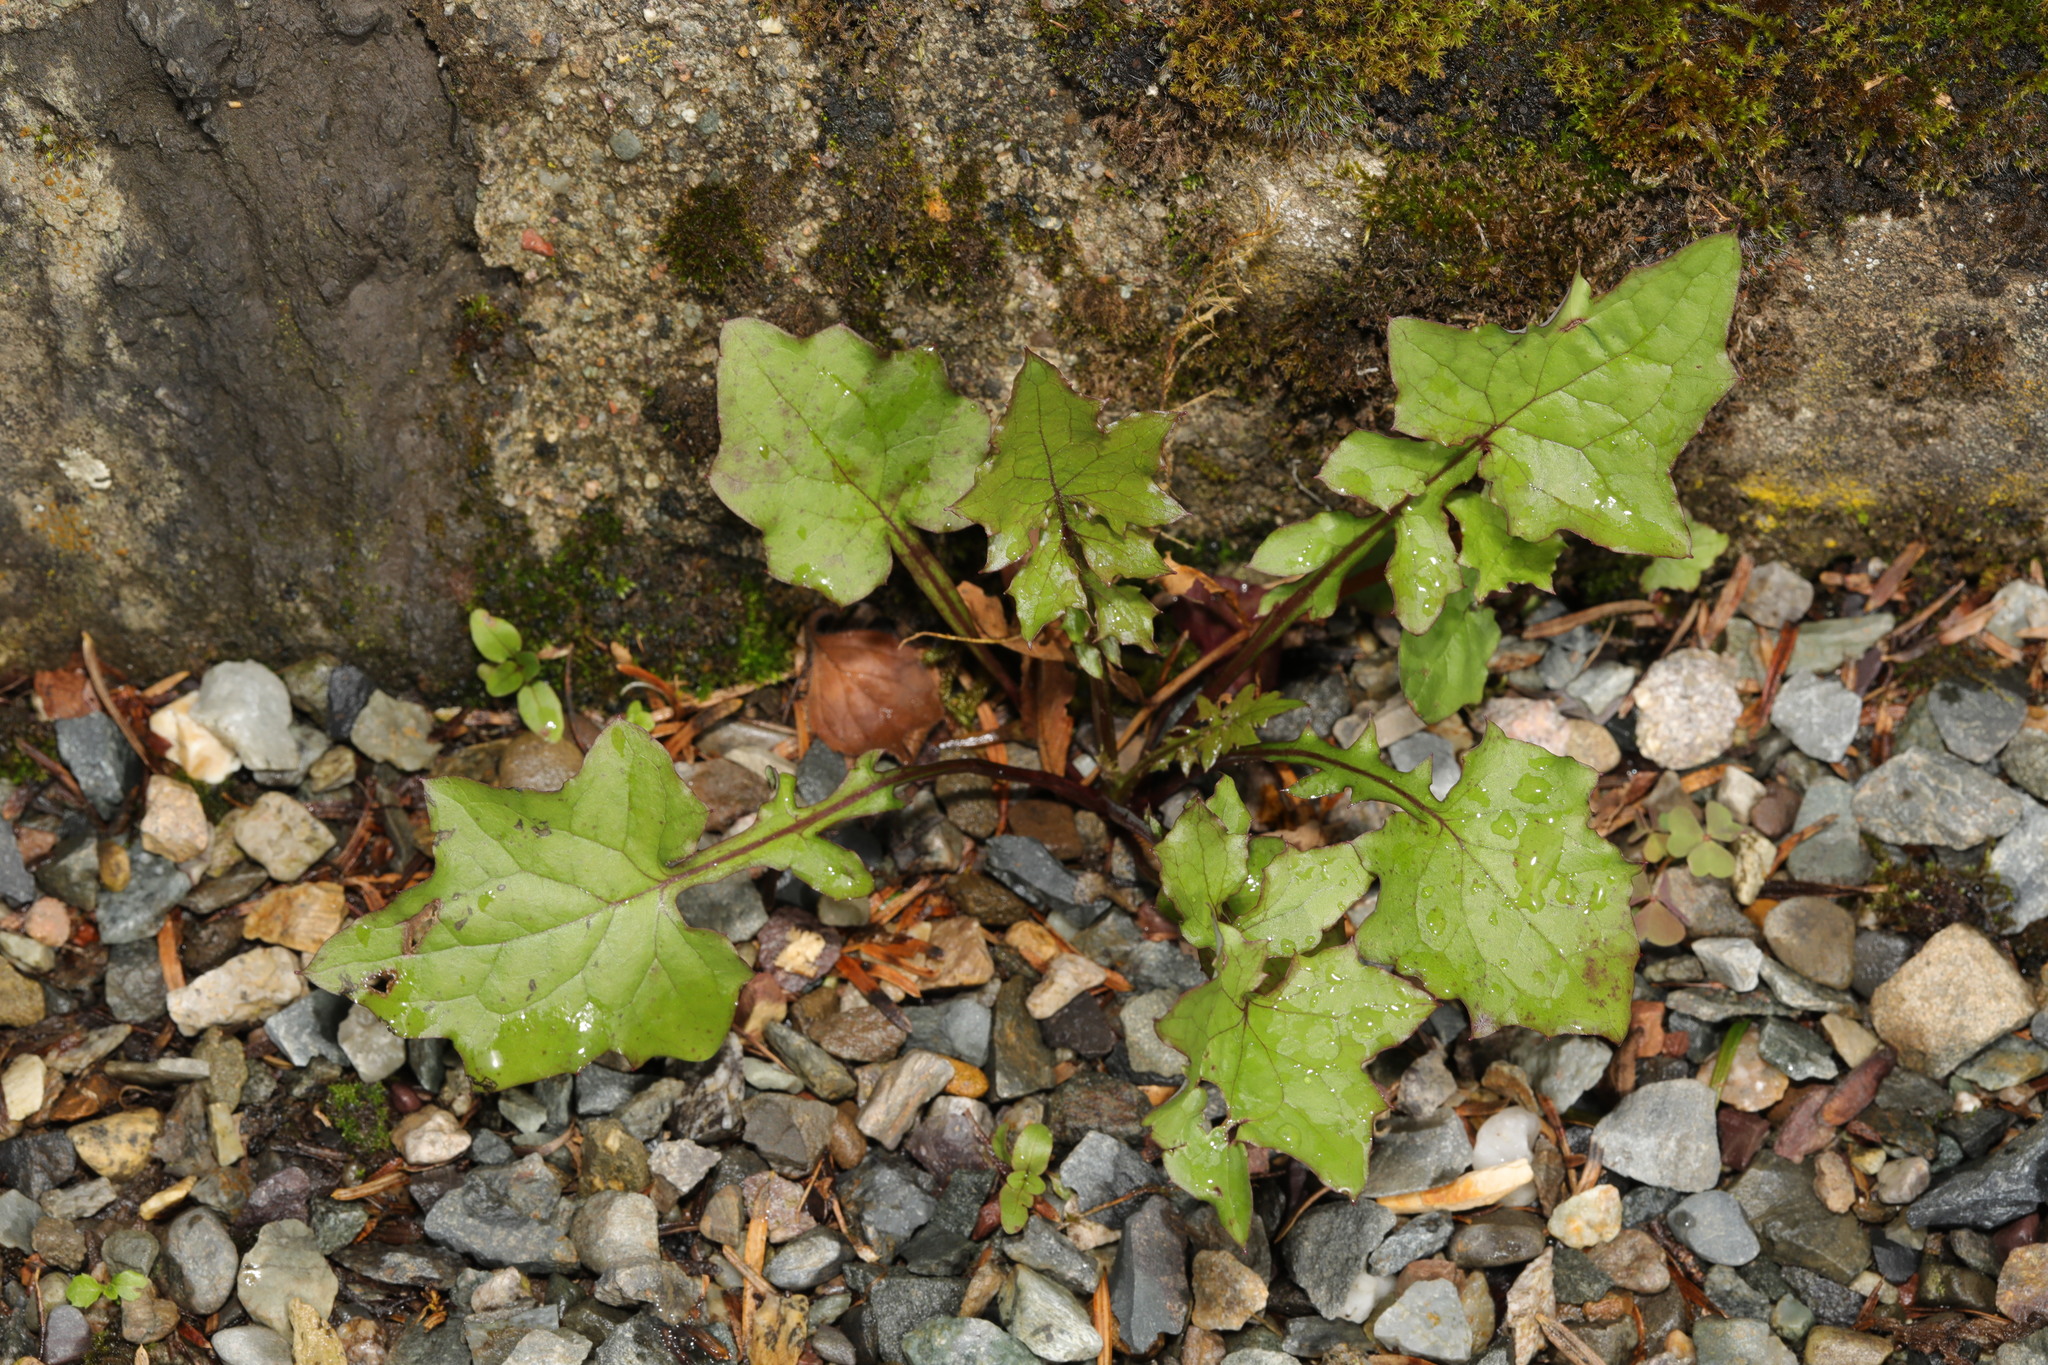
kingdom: Plantae
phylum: Tracheophyta
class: Magnoliopsida
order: Asterales
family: Asteraceae
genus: Mycelis
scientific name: Mycelis muralis
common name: Wall lettuce
